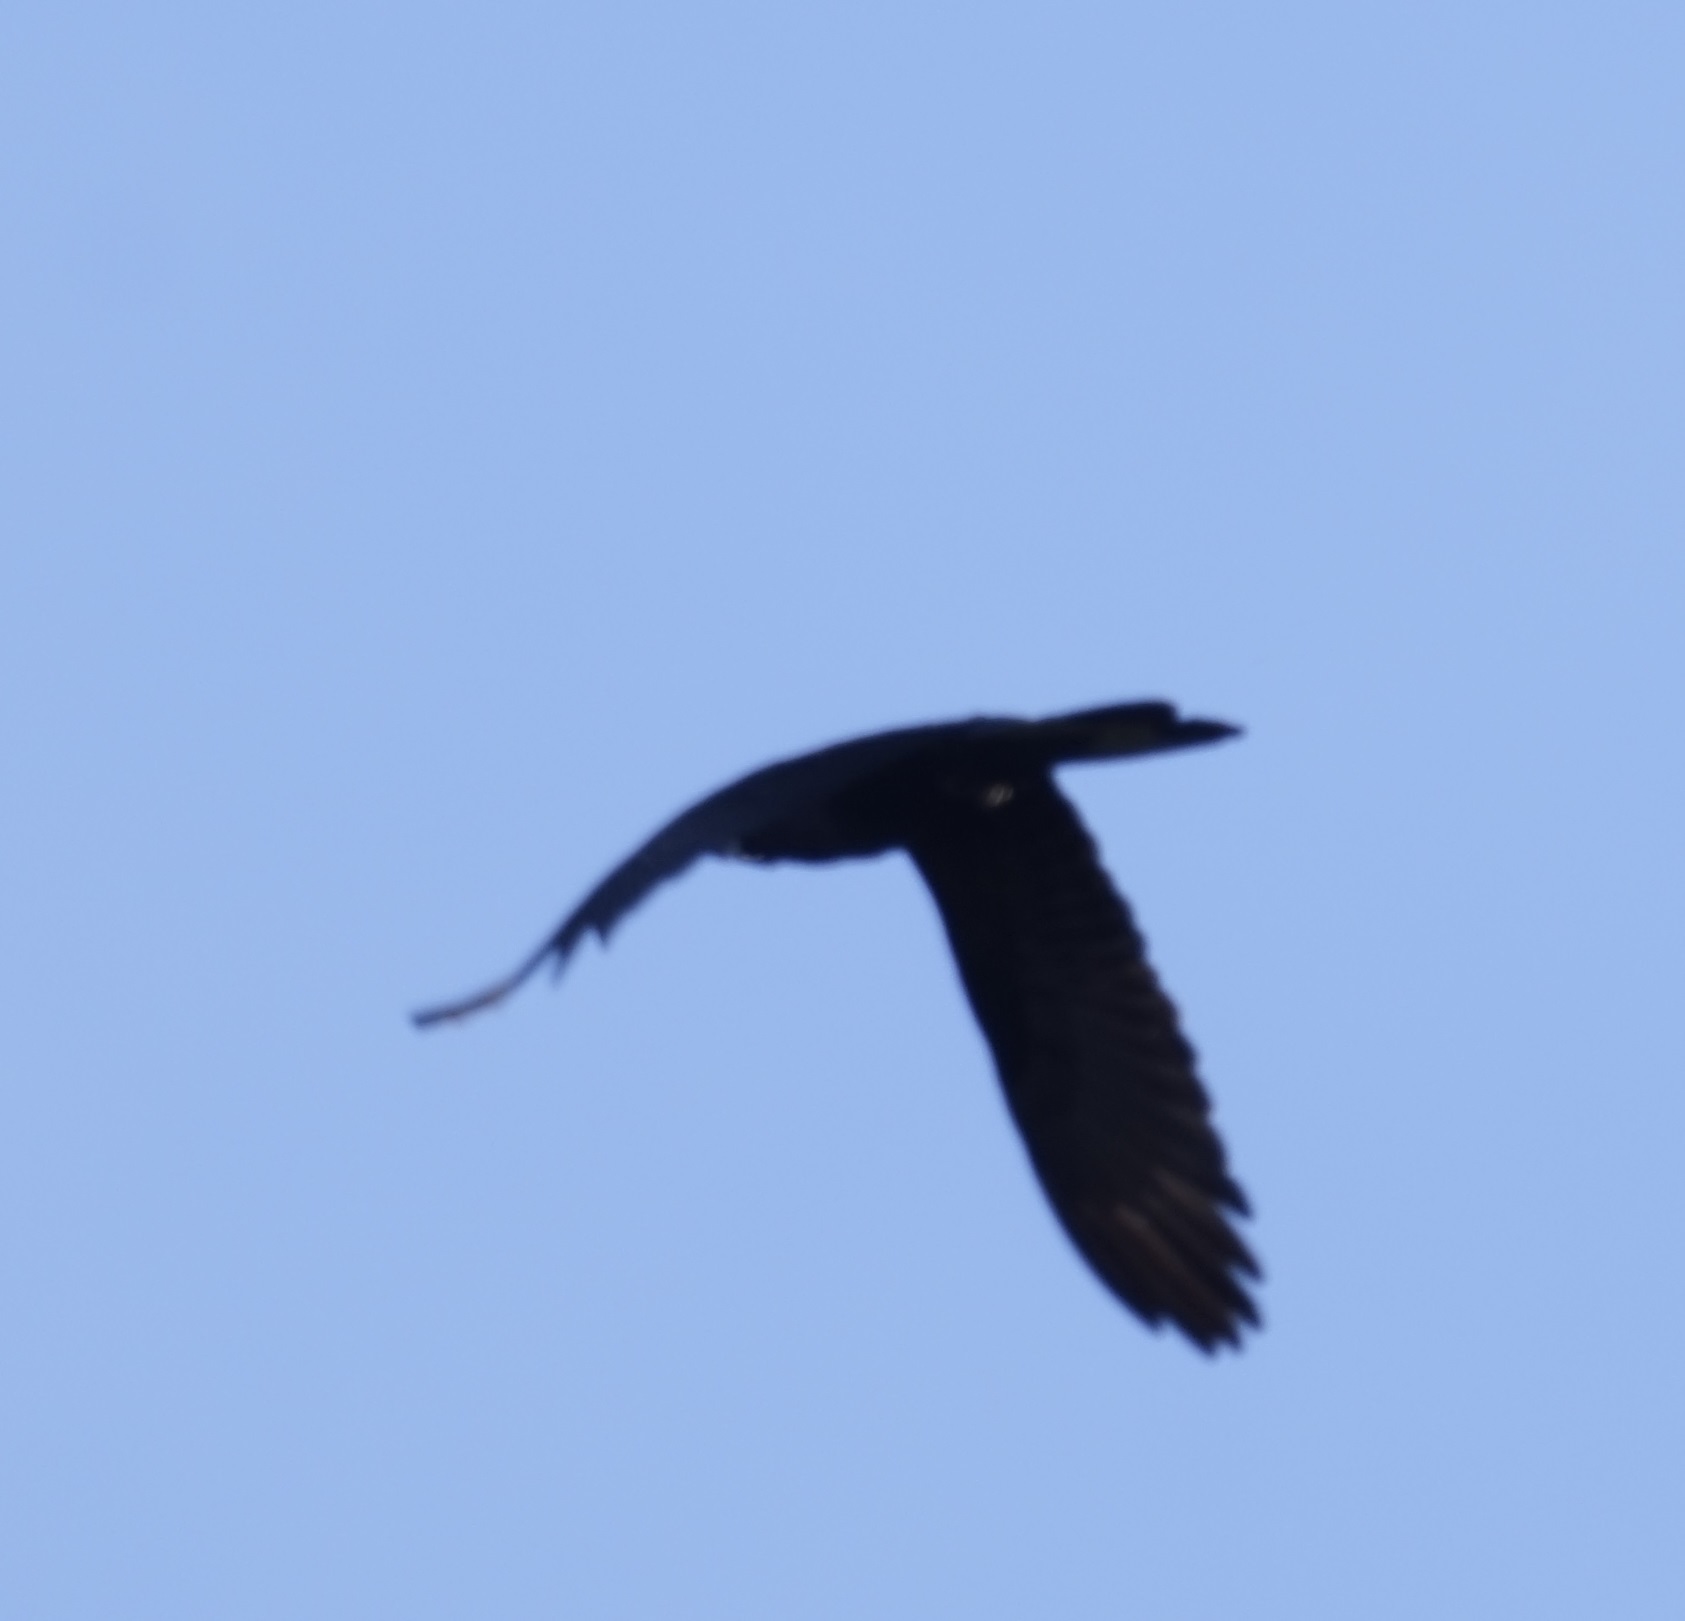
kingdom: Animalia
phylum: Chordata
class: Aves
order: Psittaciformes
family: Cacatuidae
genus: Zanda
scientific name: Zanda funerea
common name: Yellow-tailed black-cockatoo
